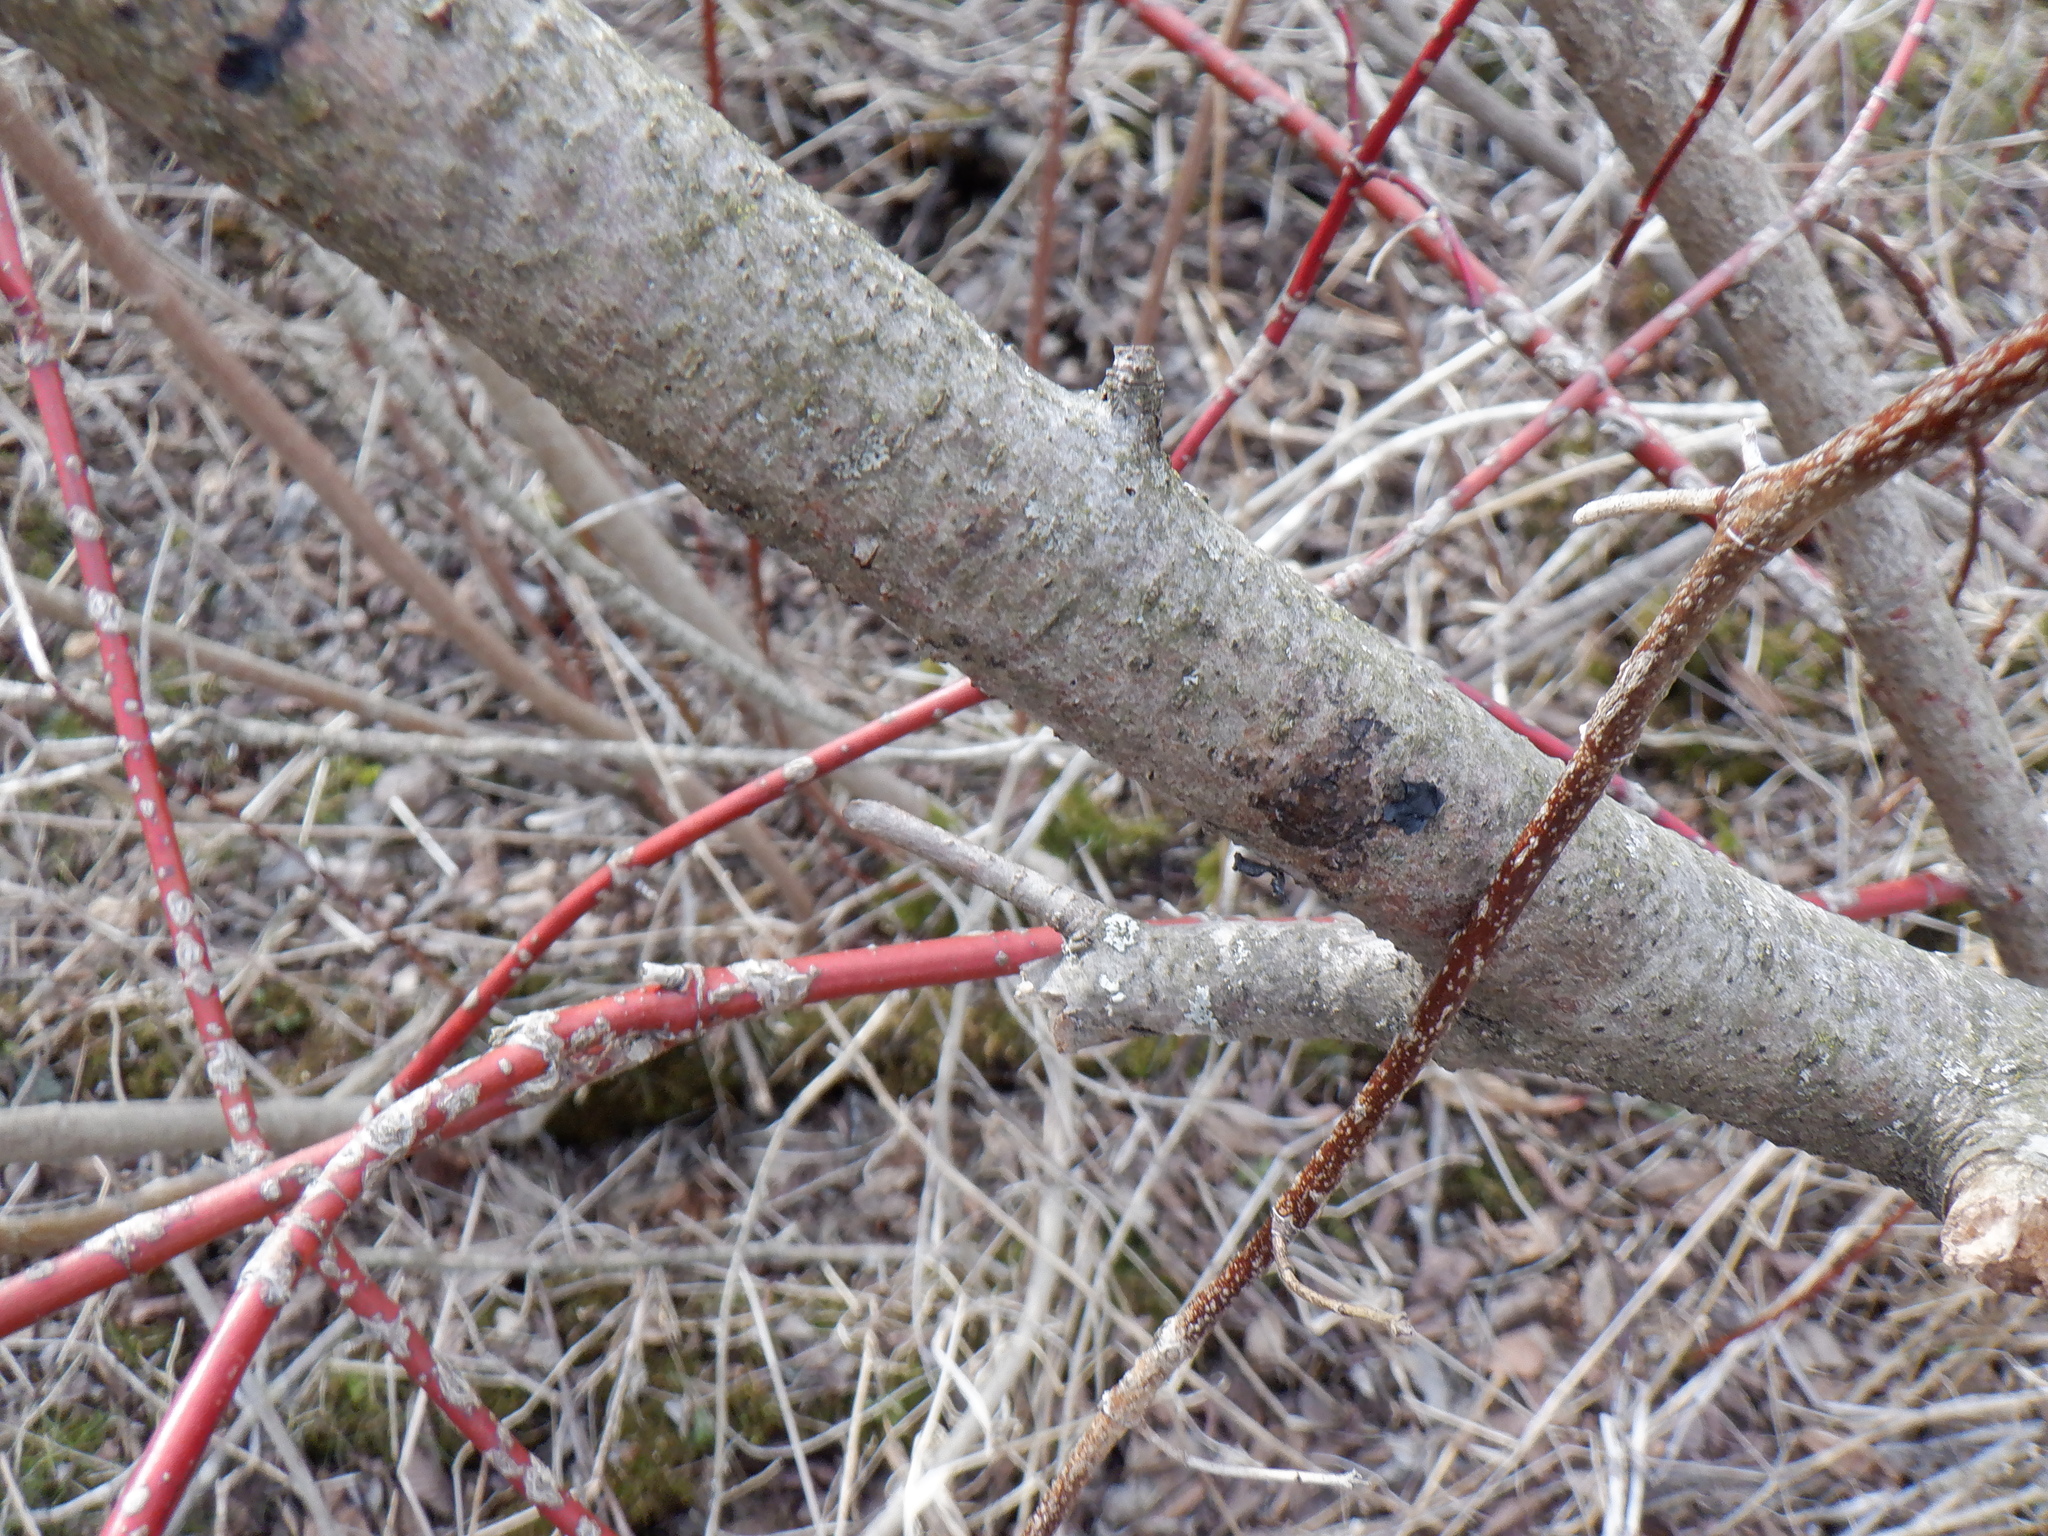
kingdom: Plantae
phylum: Tracheophyta
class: Magnoliopsida
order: Cornales
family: Cornaceae
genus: Cornus
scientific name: Cornus sericea
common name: Red-osier dogwood
